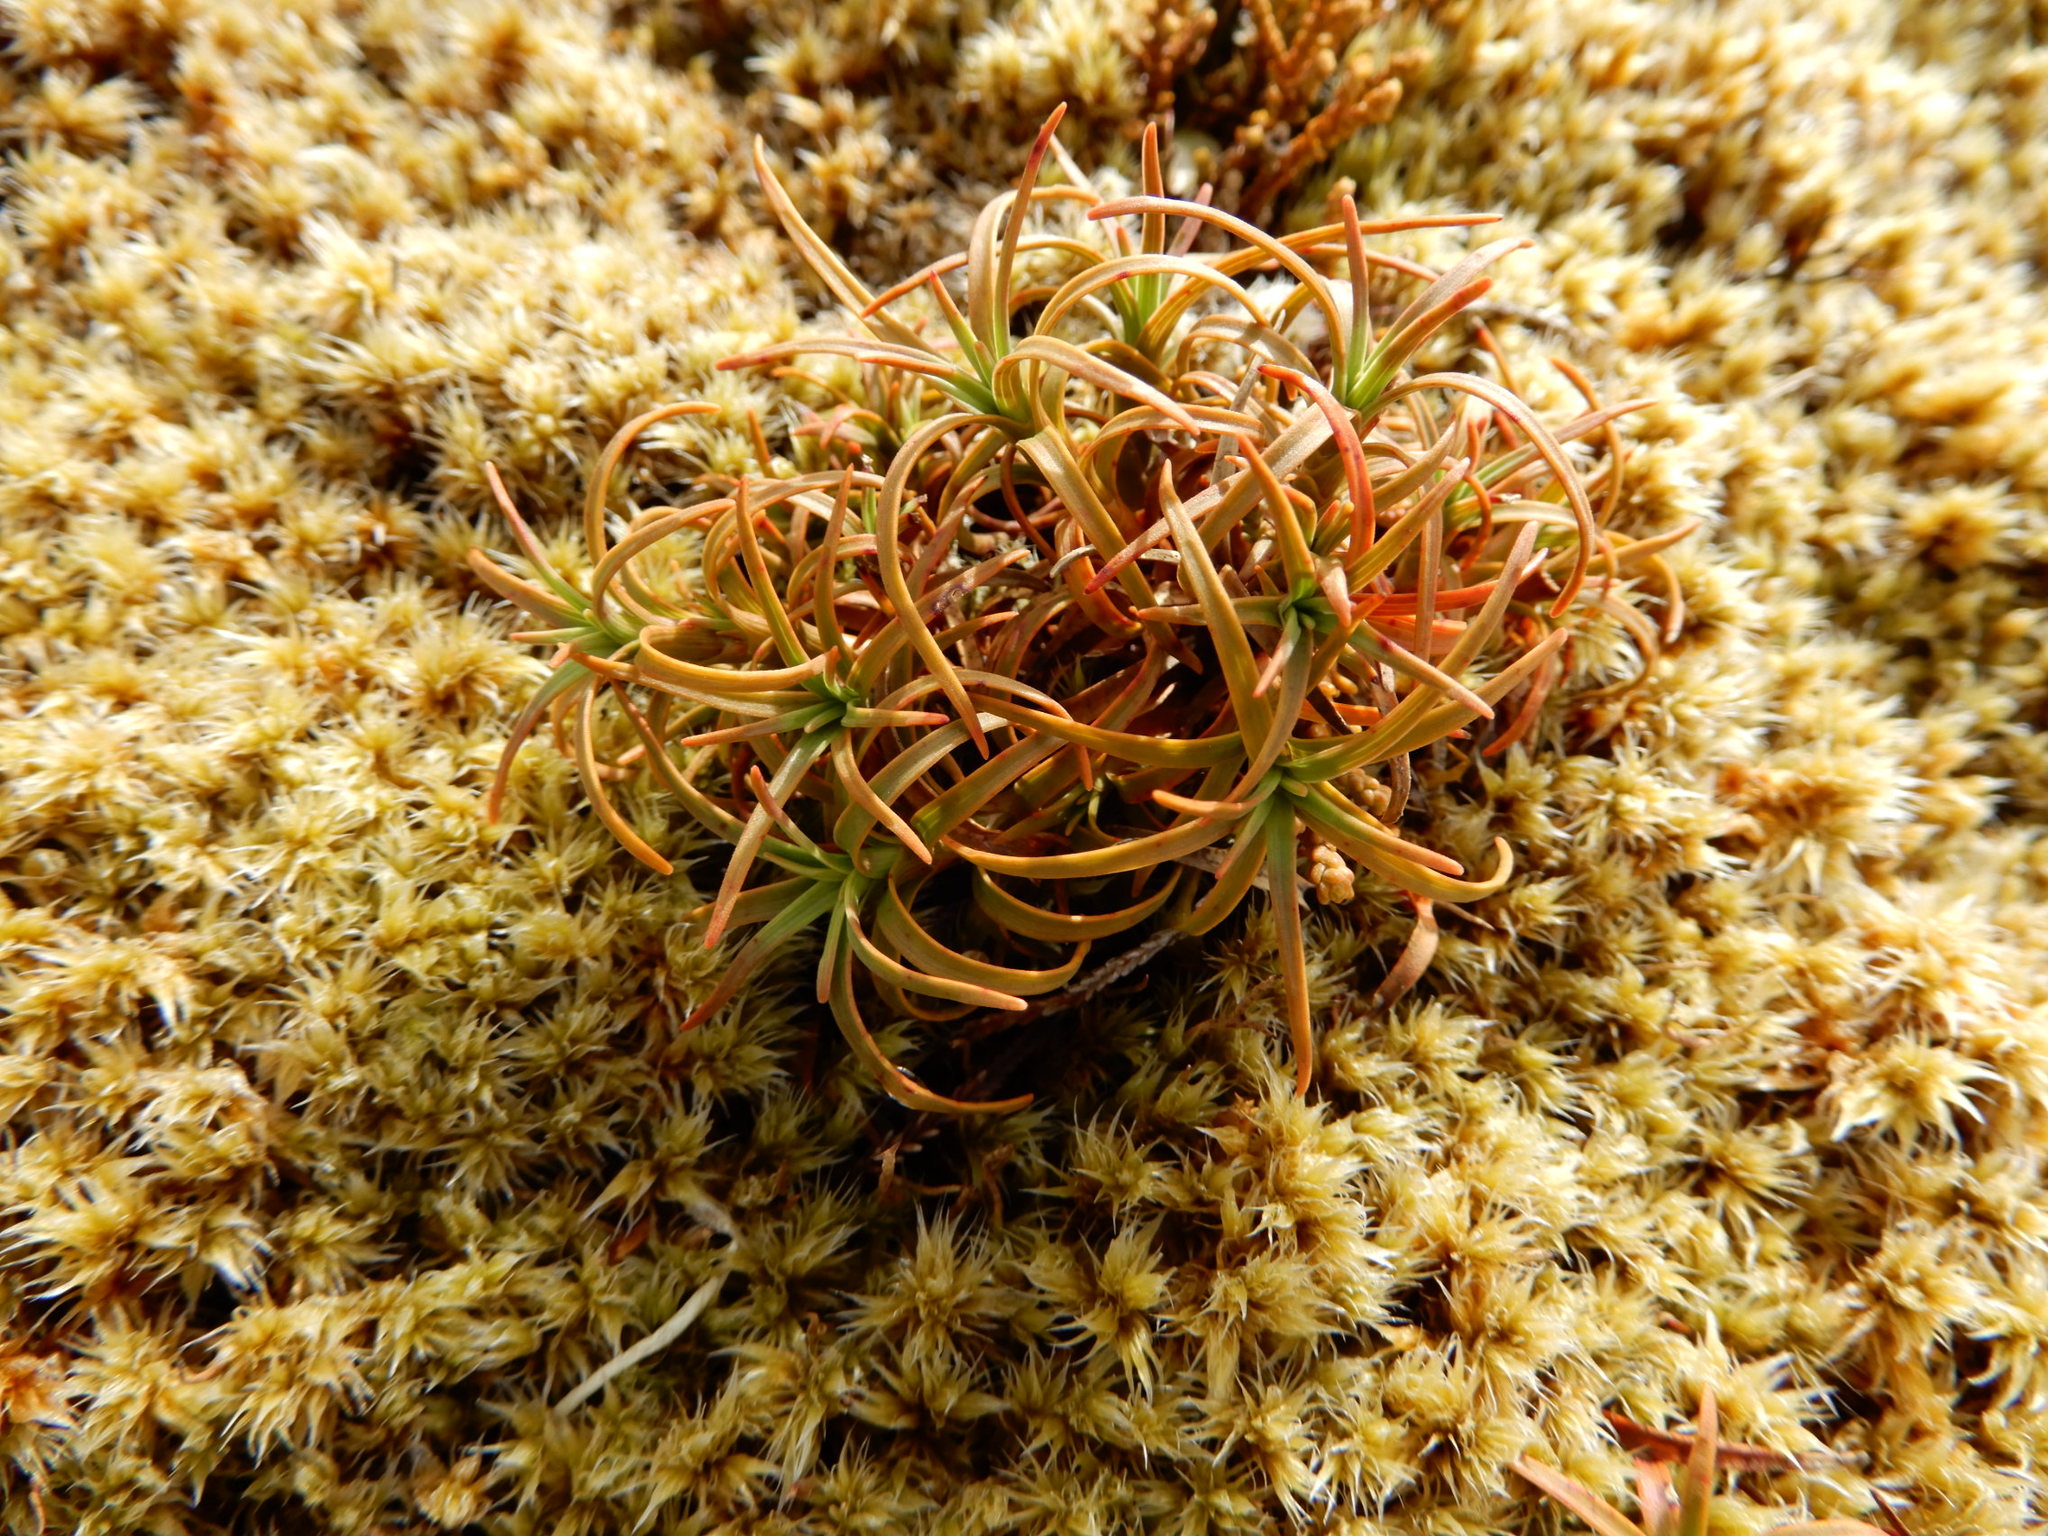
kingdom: Plantae
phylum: Tracheophyta
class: Magnoliopsida
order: Ericales
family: Ericaceae
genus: Dracophyllum
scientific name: Dracophyllum recurvum
